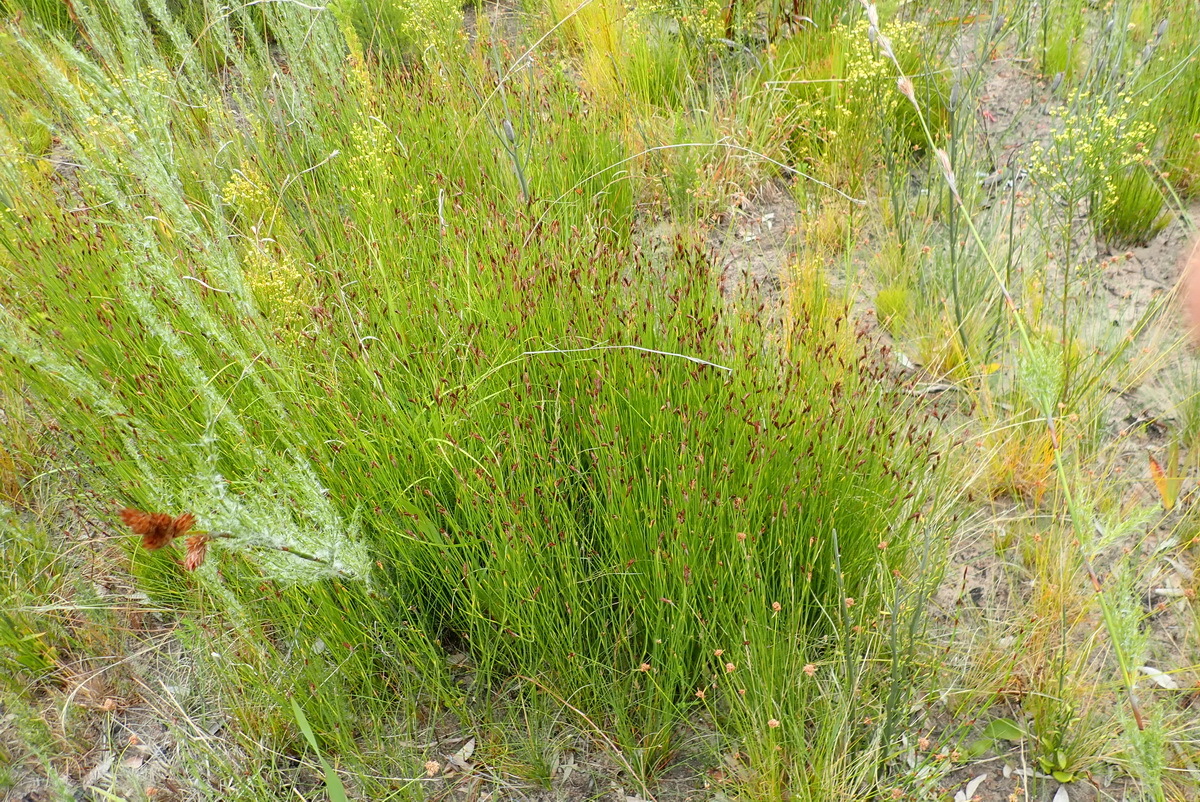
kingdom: Plantae
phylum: Tracheophyta
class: Liliopsida
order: Poales
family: Restionaceae
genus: Hypodiscus
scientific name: Hypodiscus willdenowia
